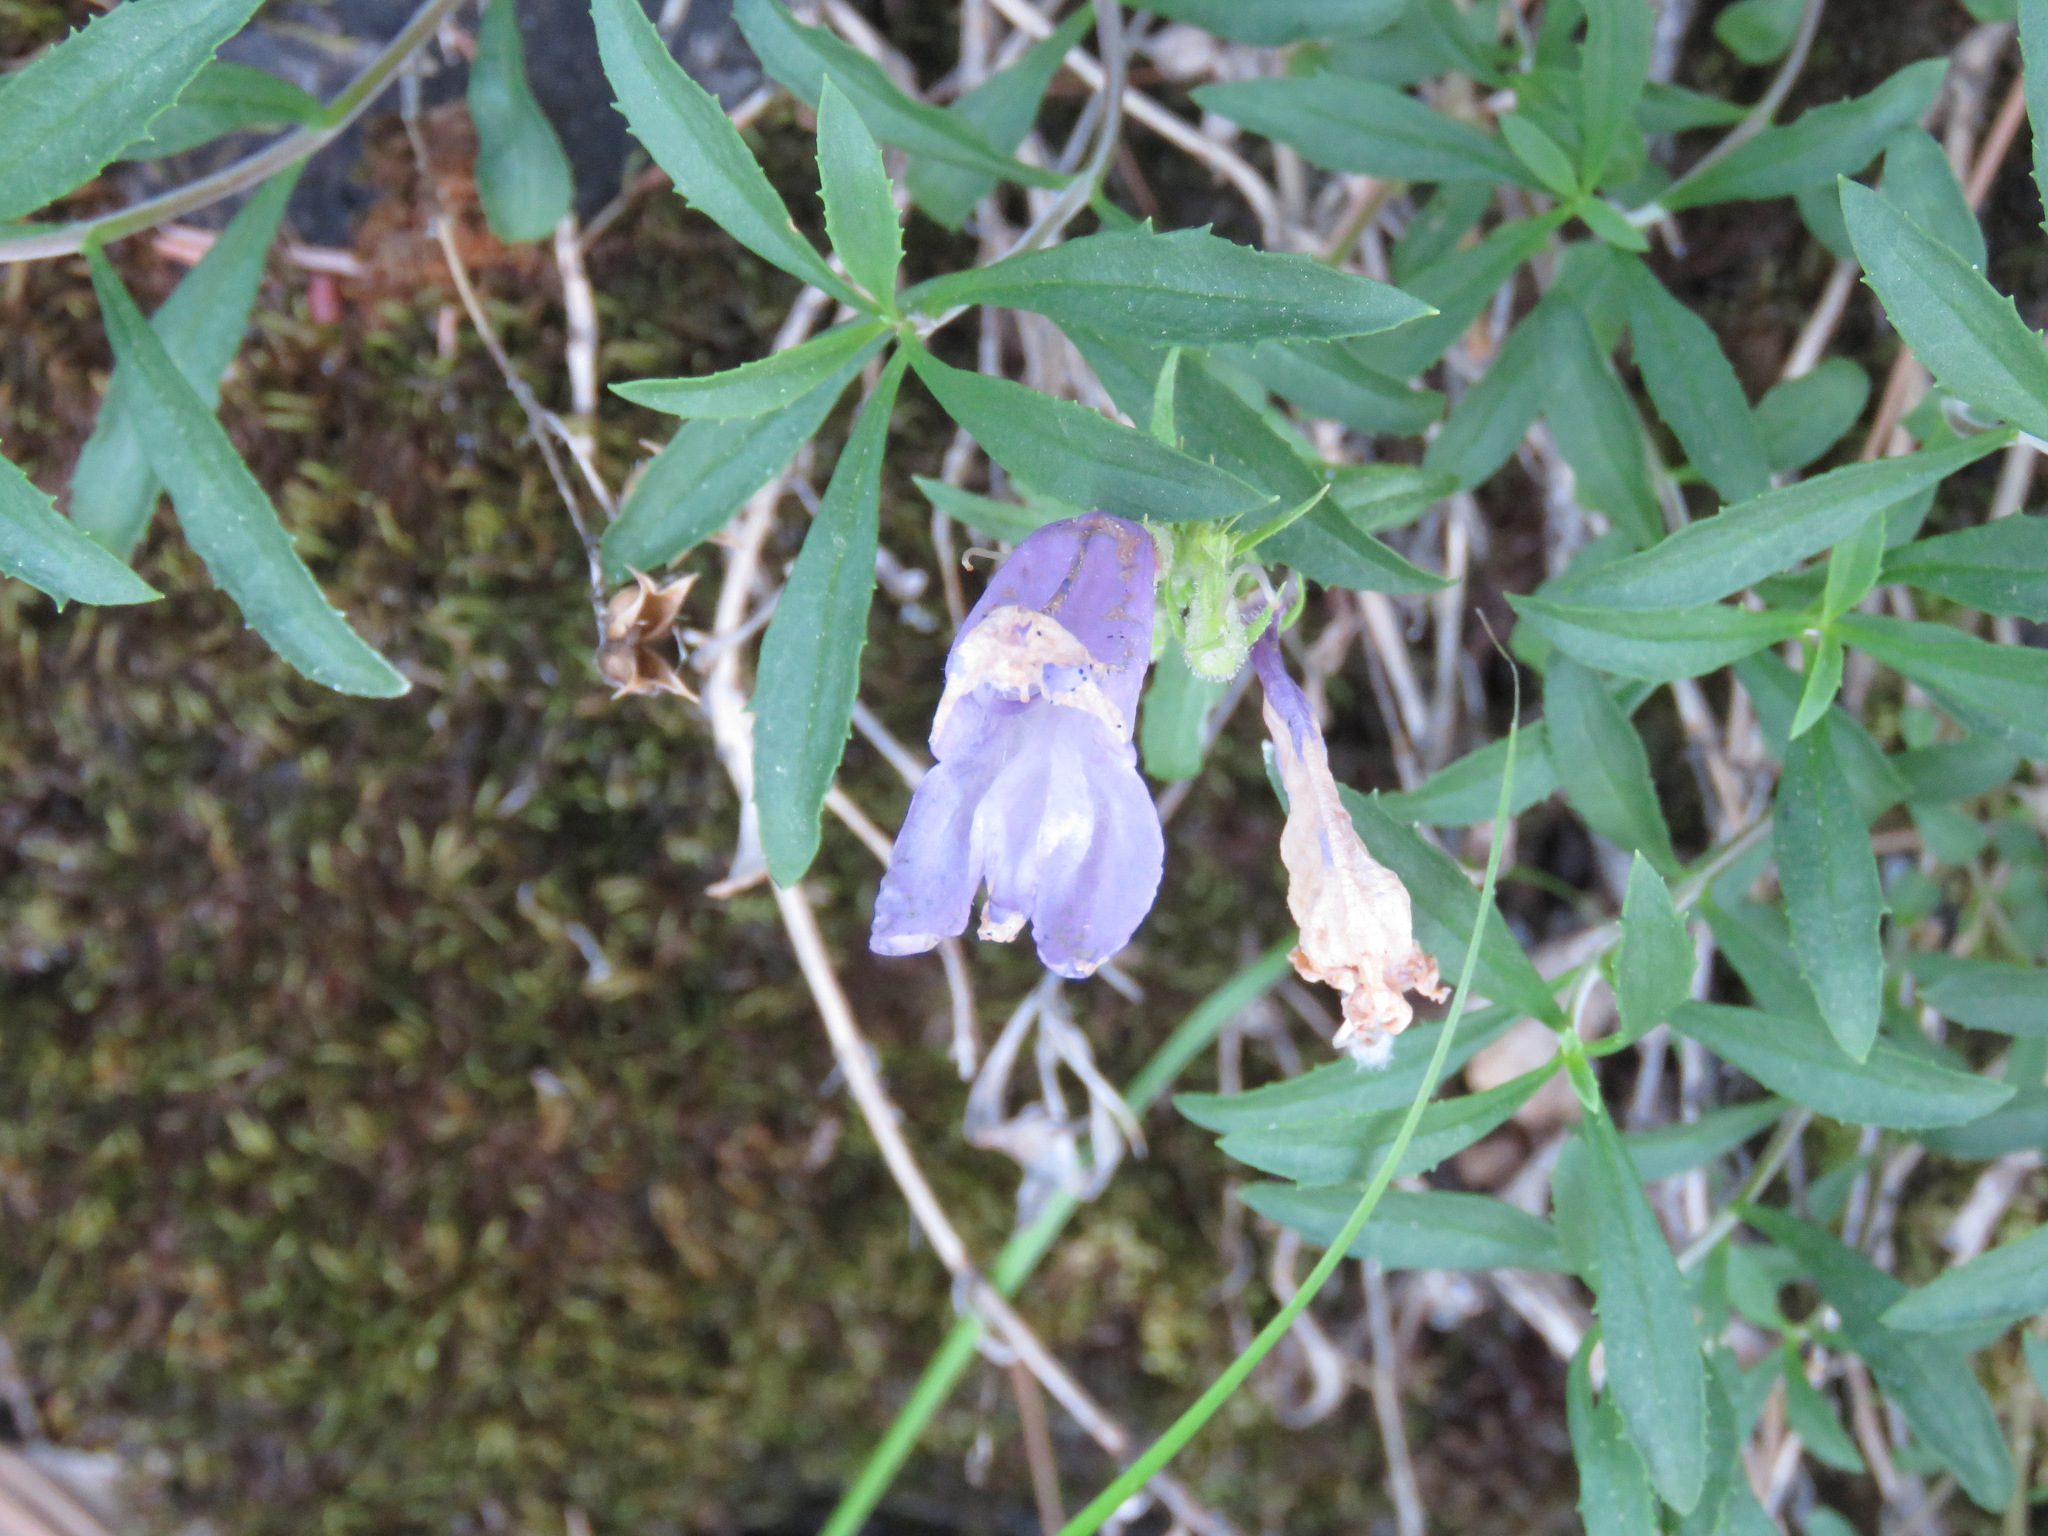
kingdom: Plantae
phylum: Tracheophyta
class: Magnoliopsida
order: Lamiales
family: Plantaginaceae
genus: Penstemon
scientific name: Penstemon fruticosus
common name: Bush penstemon
